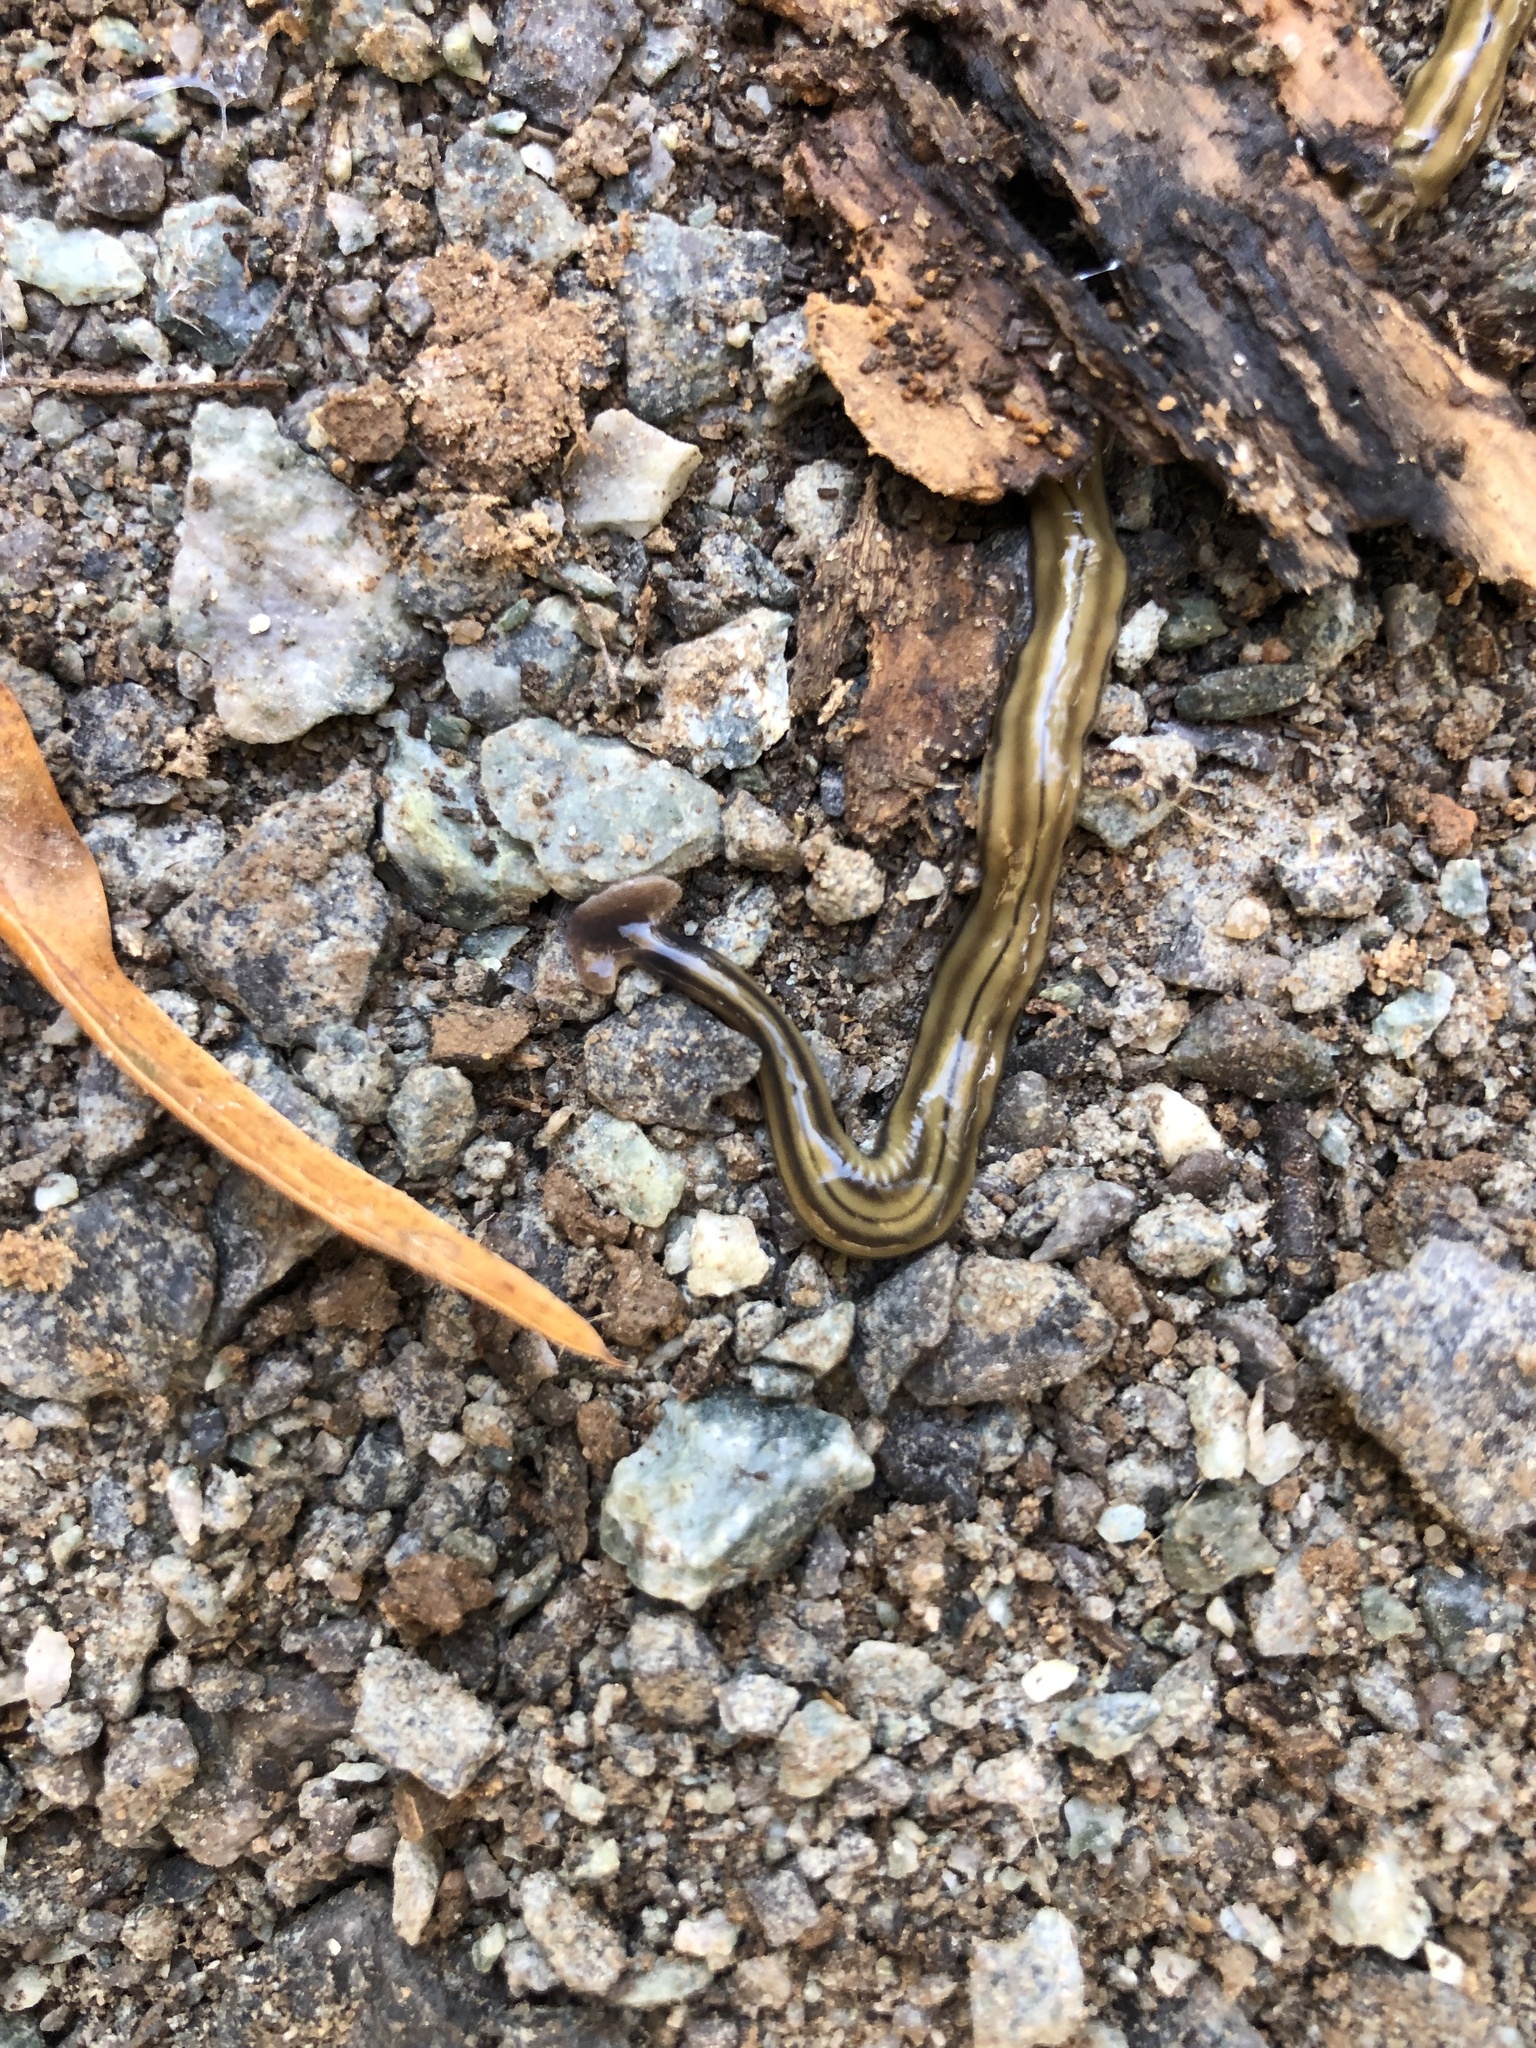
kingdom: Animalia
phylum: Platyhelminthes
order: Tricladida
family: Geoplanidae
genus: Bipalium
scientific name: Bipalium kewense
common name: Hammerhead flatworm
